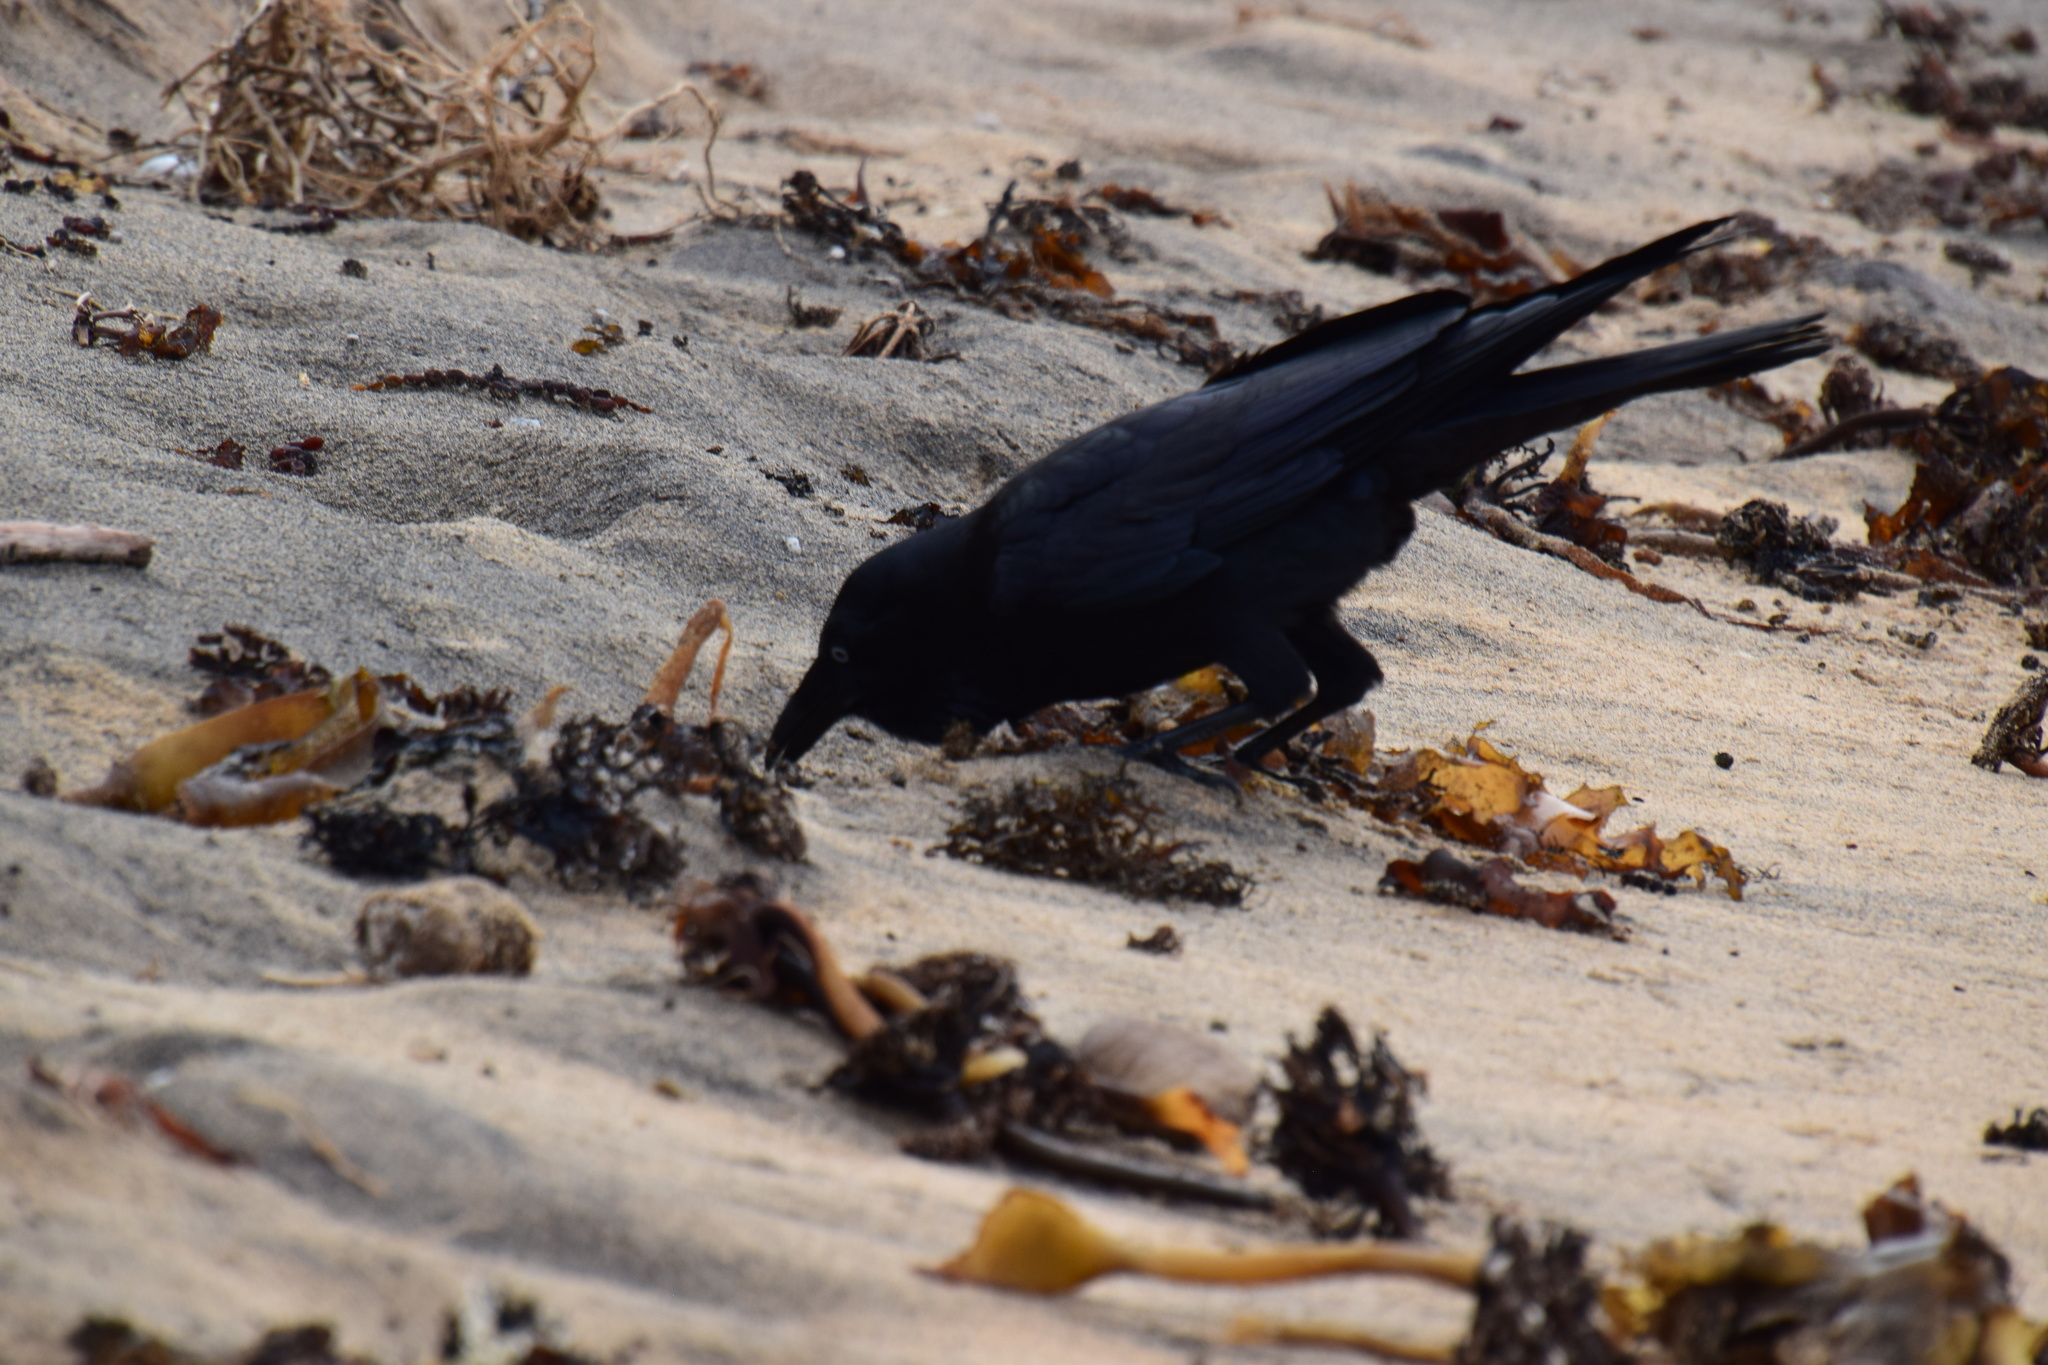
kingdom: Animalia
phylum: Chordata
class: Aves
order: Passeriformes
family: Corvidae
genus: Corvus
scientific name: Corvus coronoides
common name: Australian raven
